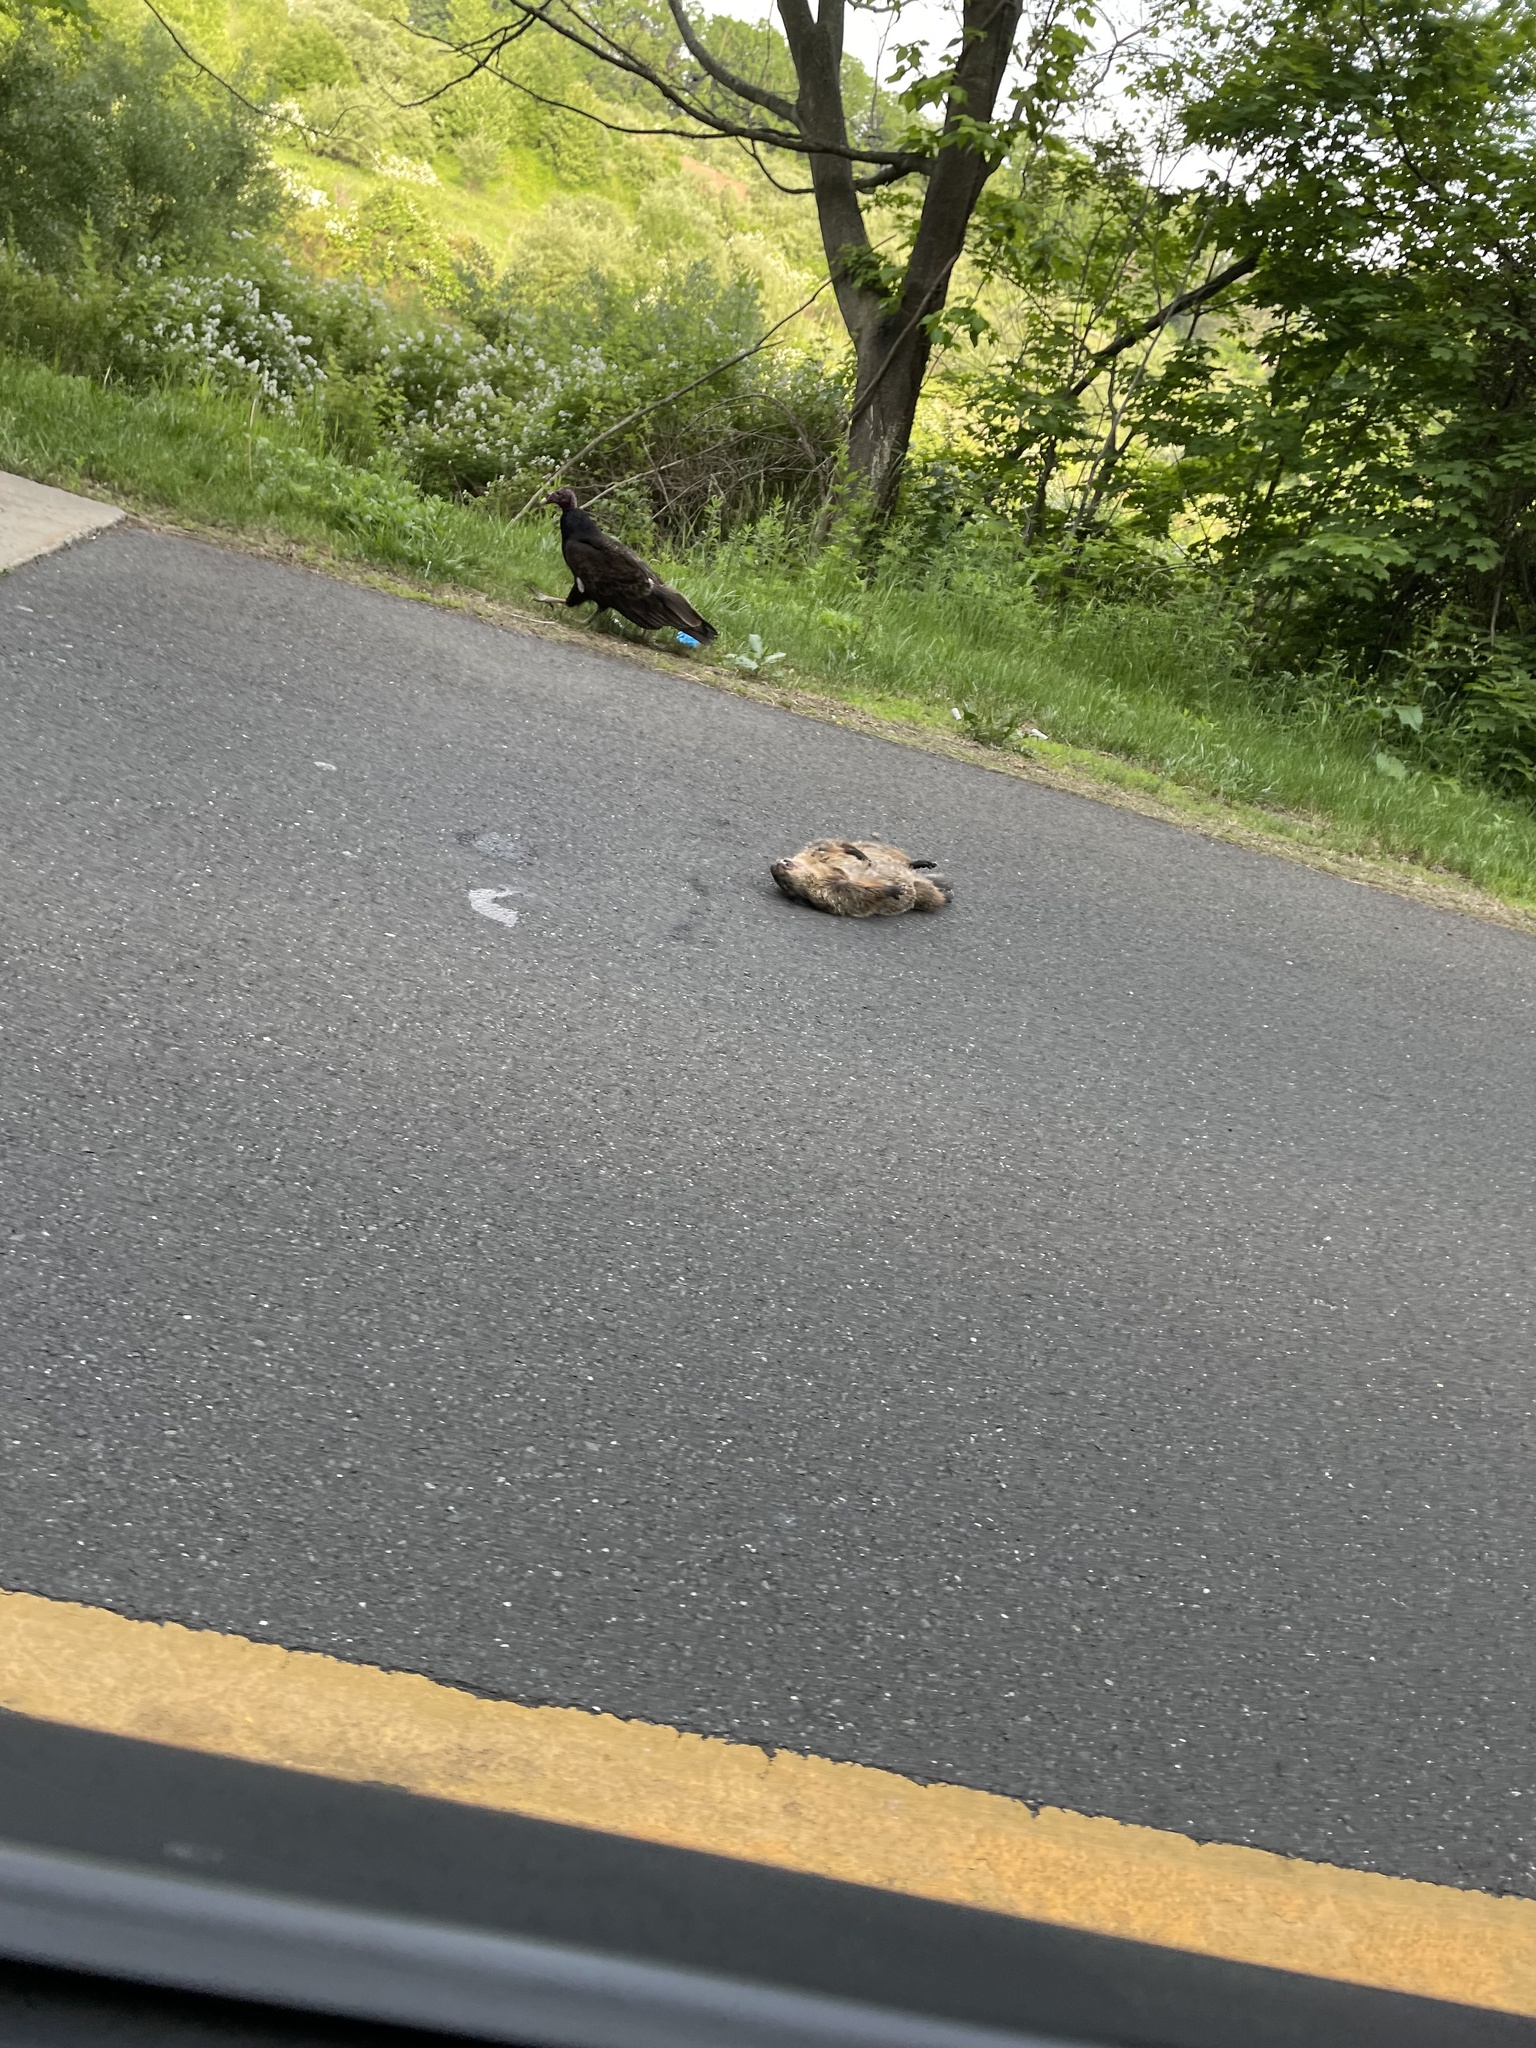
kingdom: Animalia
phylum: Chordata
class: Mammalia
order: Rodentia
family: Sciuridae
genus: Marmota
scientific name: Marmota monax
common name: Groundhog
